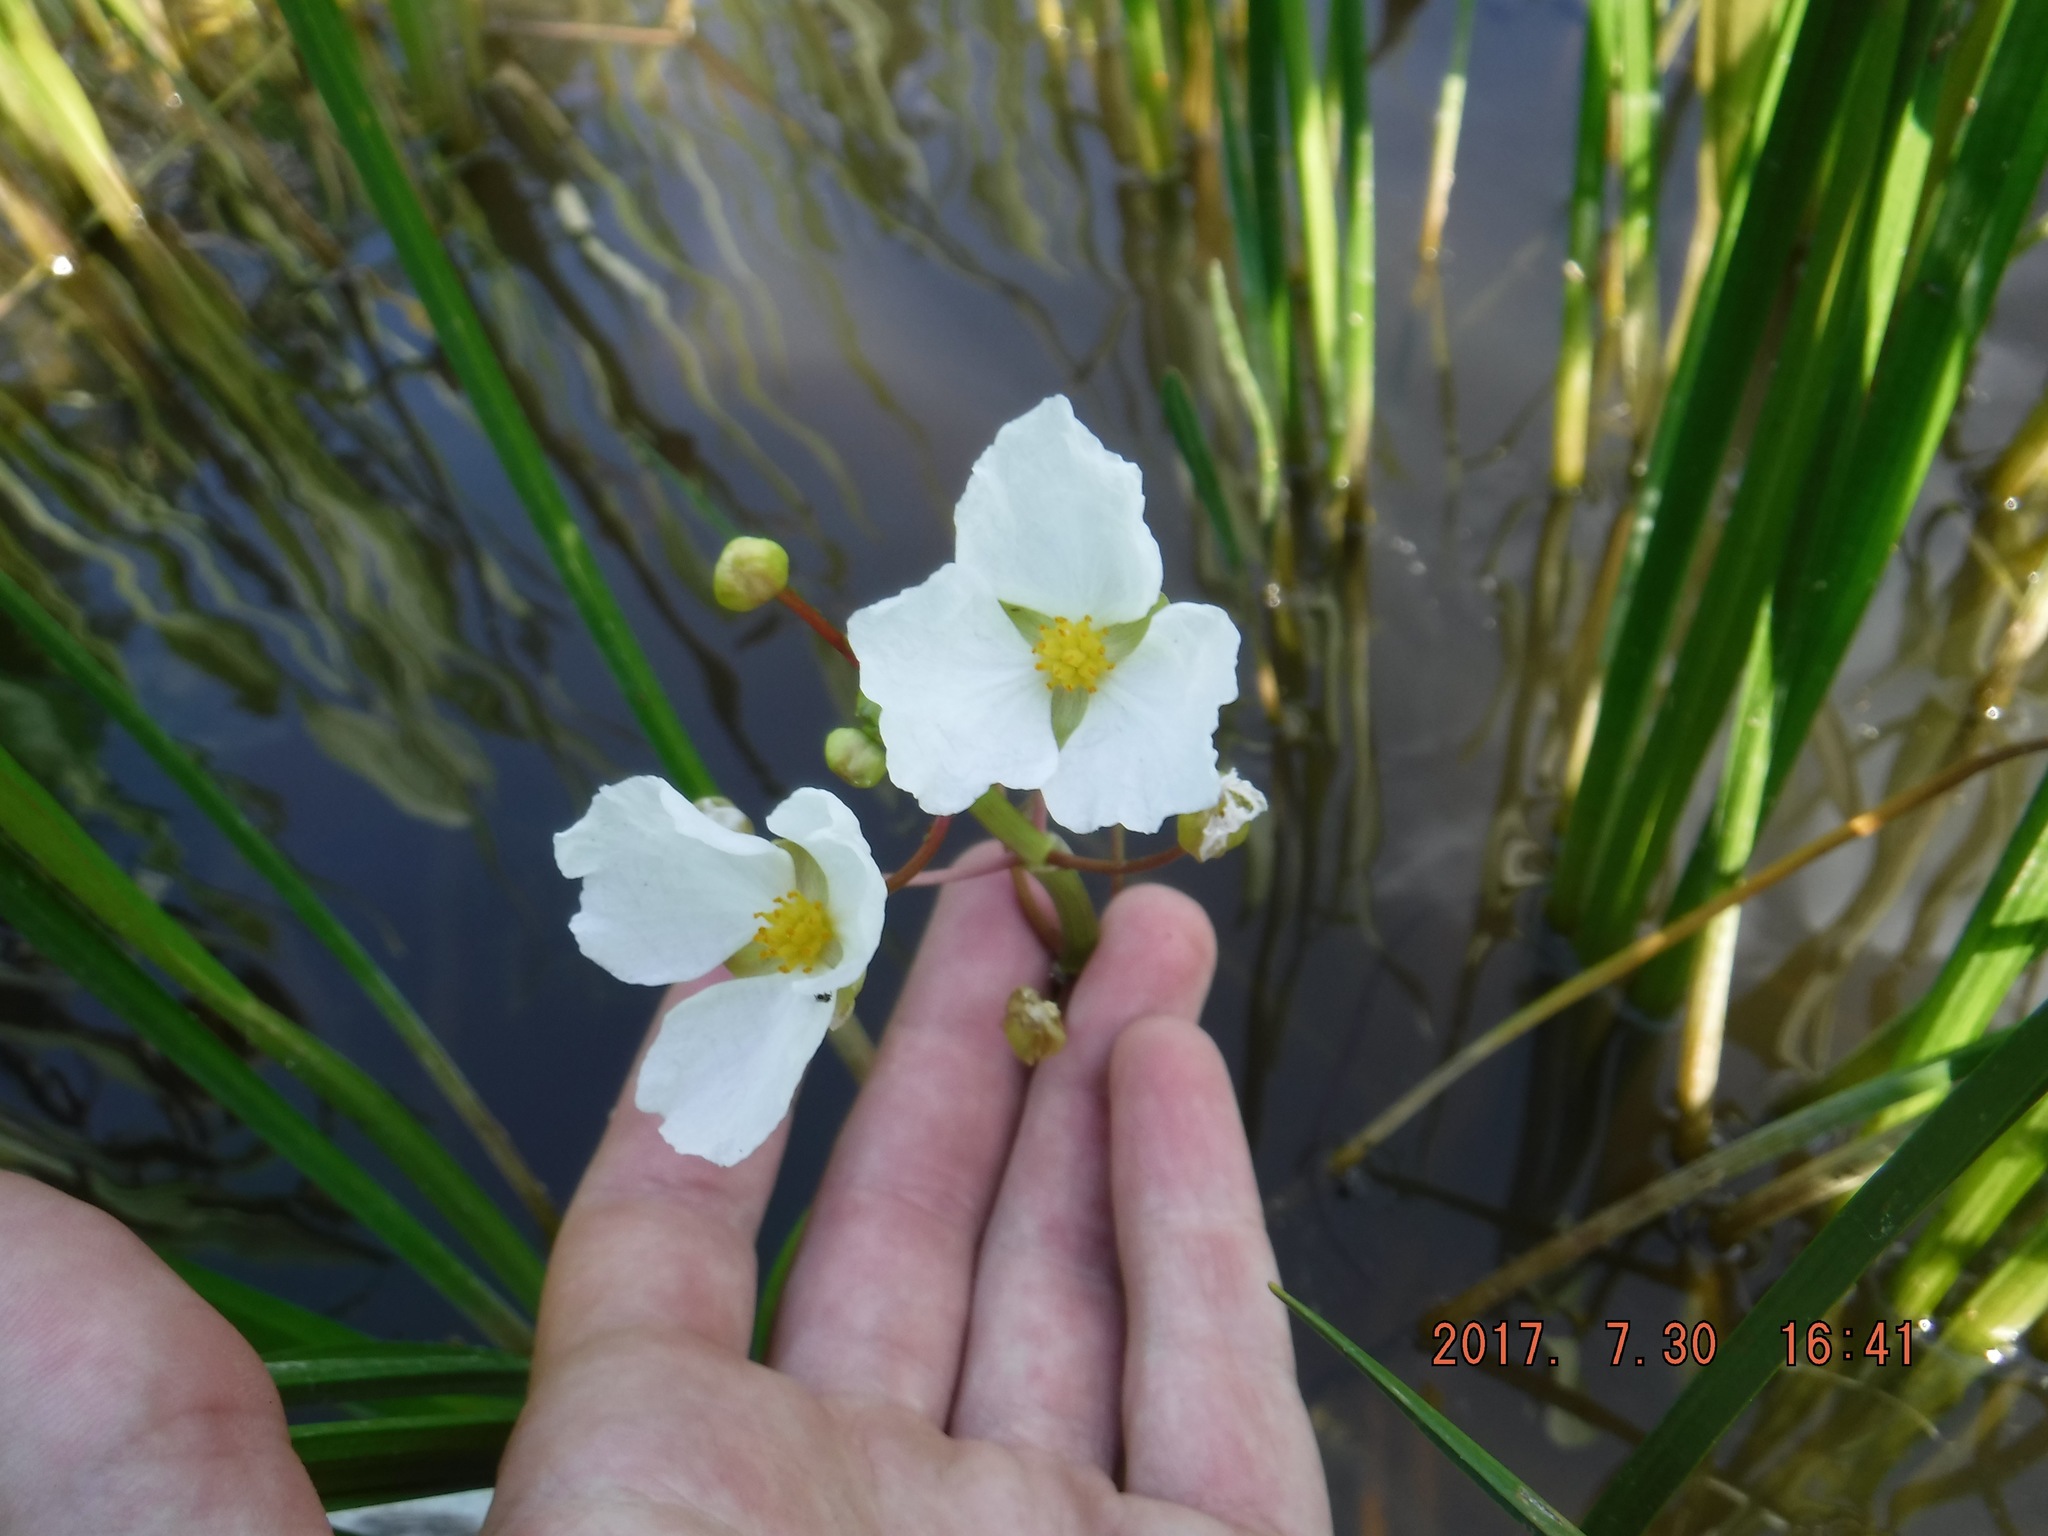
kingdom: Plantae
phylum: Tracheophyta
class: Liliopsida
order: Alismatales
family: Alismataceae
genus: Sagittaria
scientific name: Sagittaria rigida
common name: Canadian arrowhead
